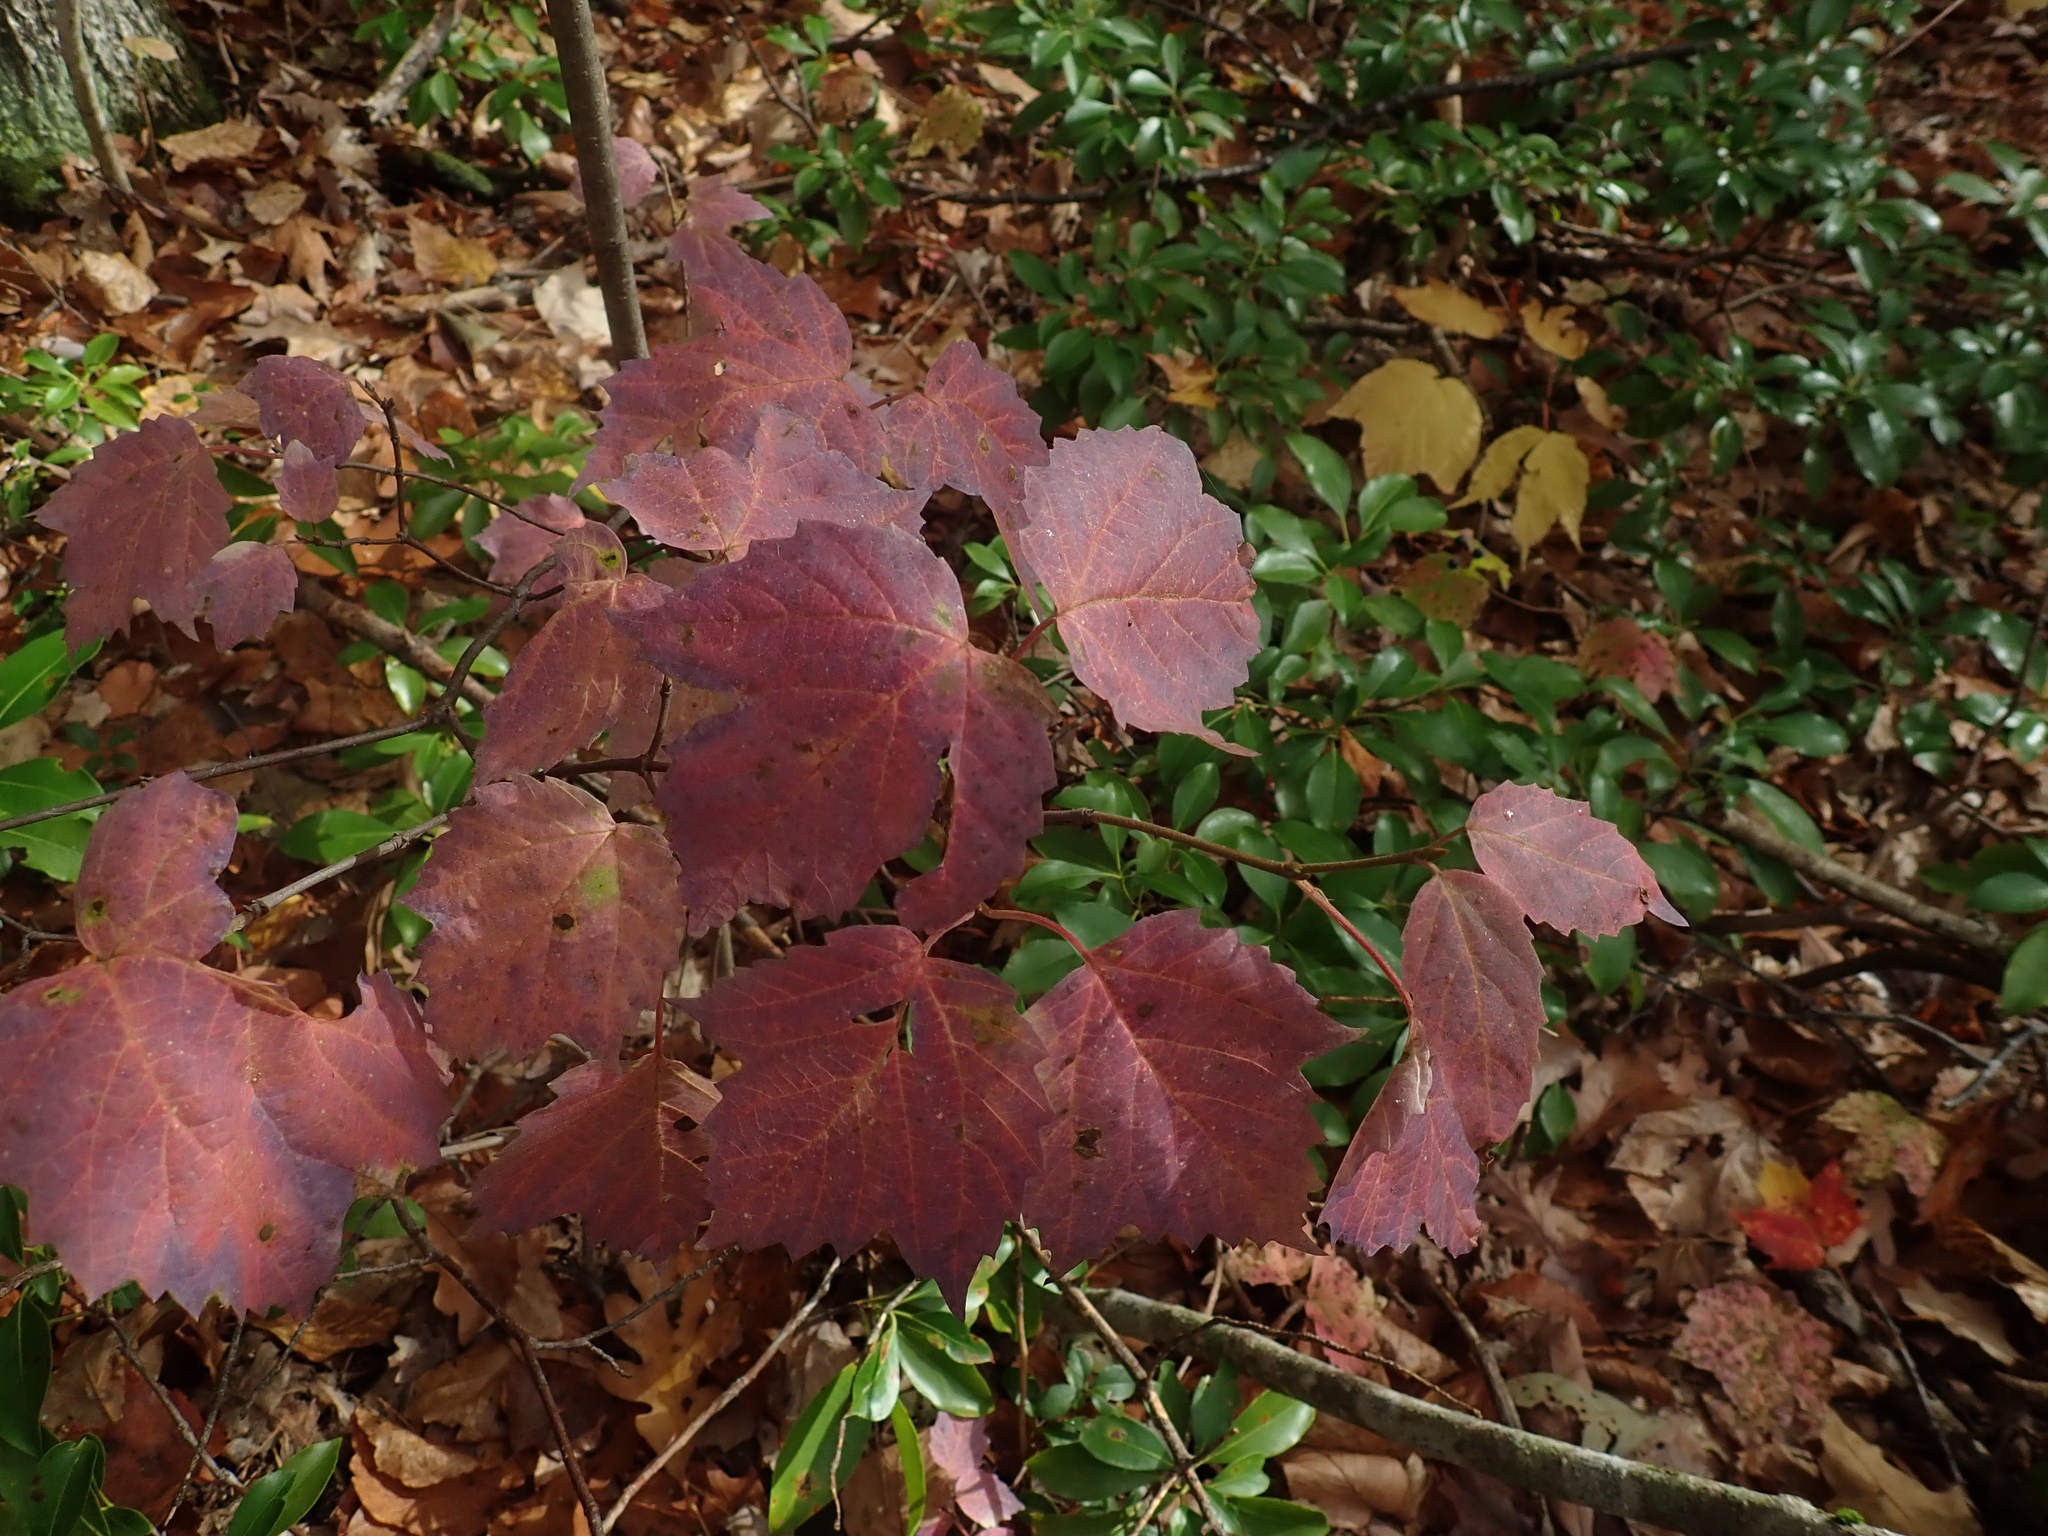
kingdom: Plantae
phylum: Tracheophyta
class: Magnoliopsida
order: Dipsacales
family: Viburnaceae
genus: Viburnum
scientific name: Viburnum acerifolium
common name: Dockmackie
